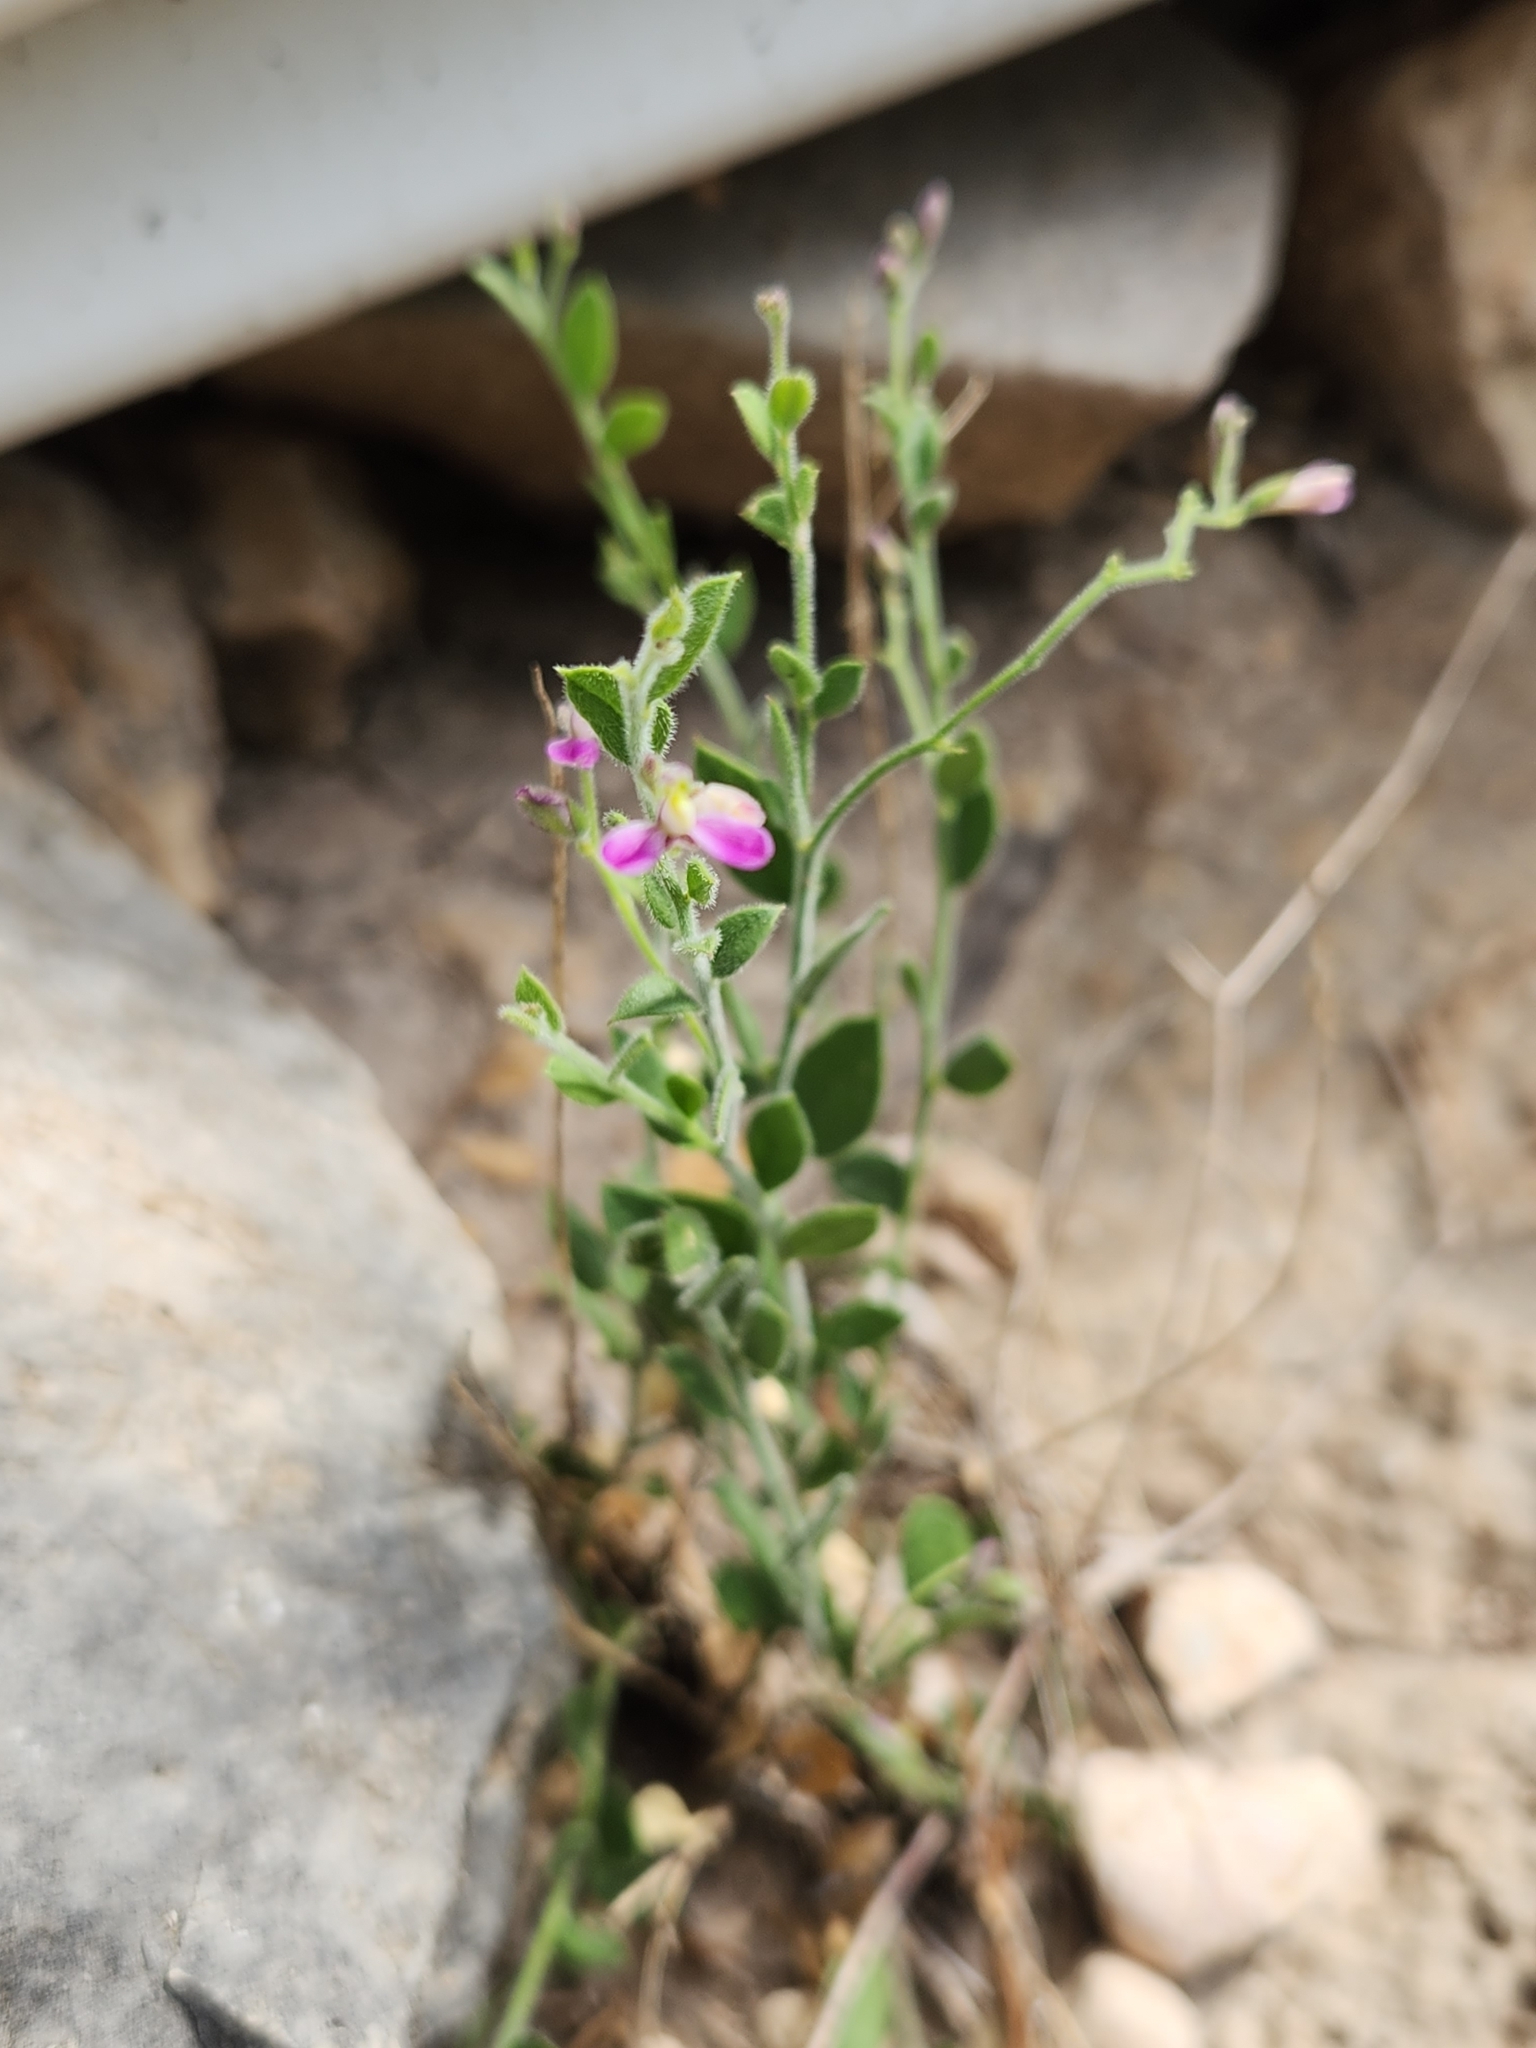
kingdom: Plantae
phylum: Tracheophyta
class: Magnoliopsida
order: Fabales
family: Polygalaceae
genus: Rhinotropis
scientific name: Rhinotropis lindheimeri
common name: Shrubby milkwort
